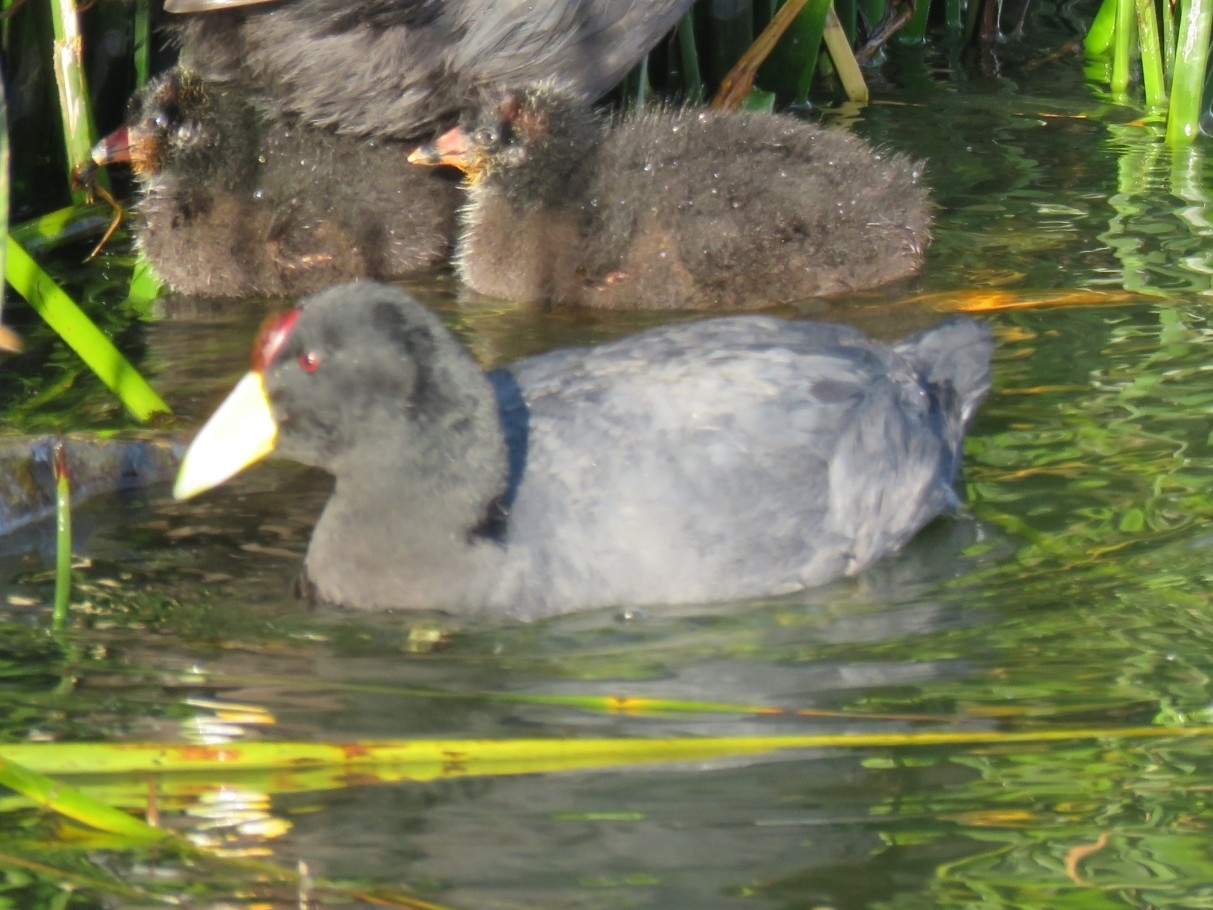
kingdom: Animalia
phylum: Chordata
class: Aves
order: Gruiformes
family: Rallidae
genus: Fulica
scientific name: Fulica ardesiaca
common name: Andean coot
